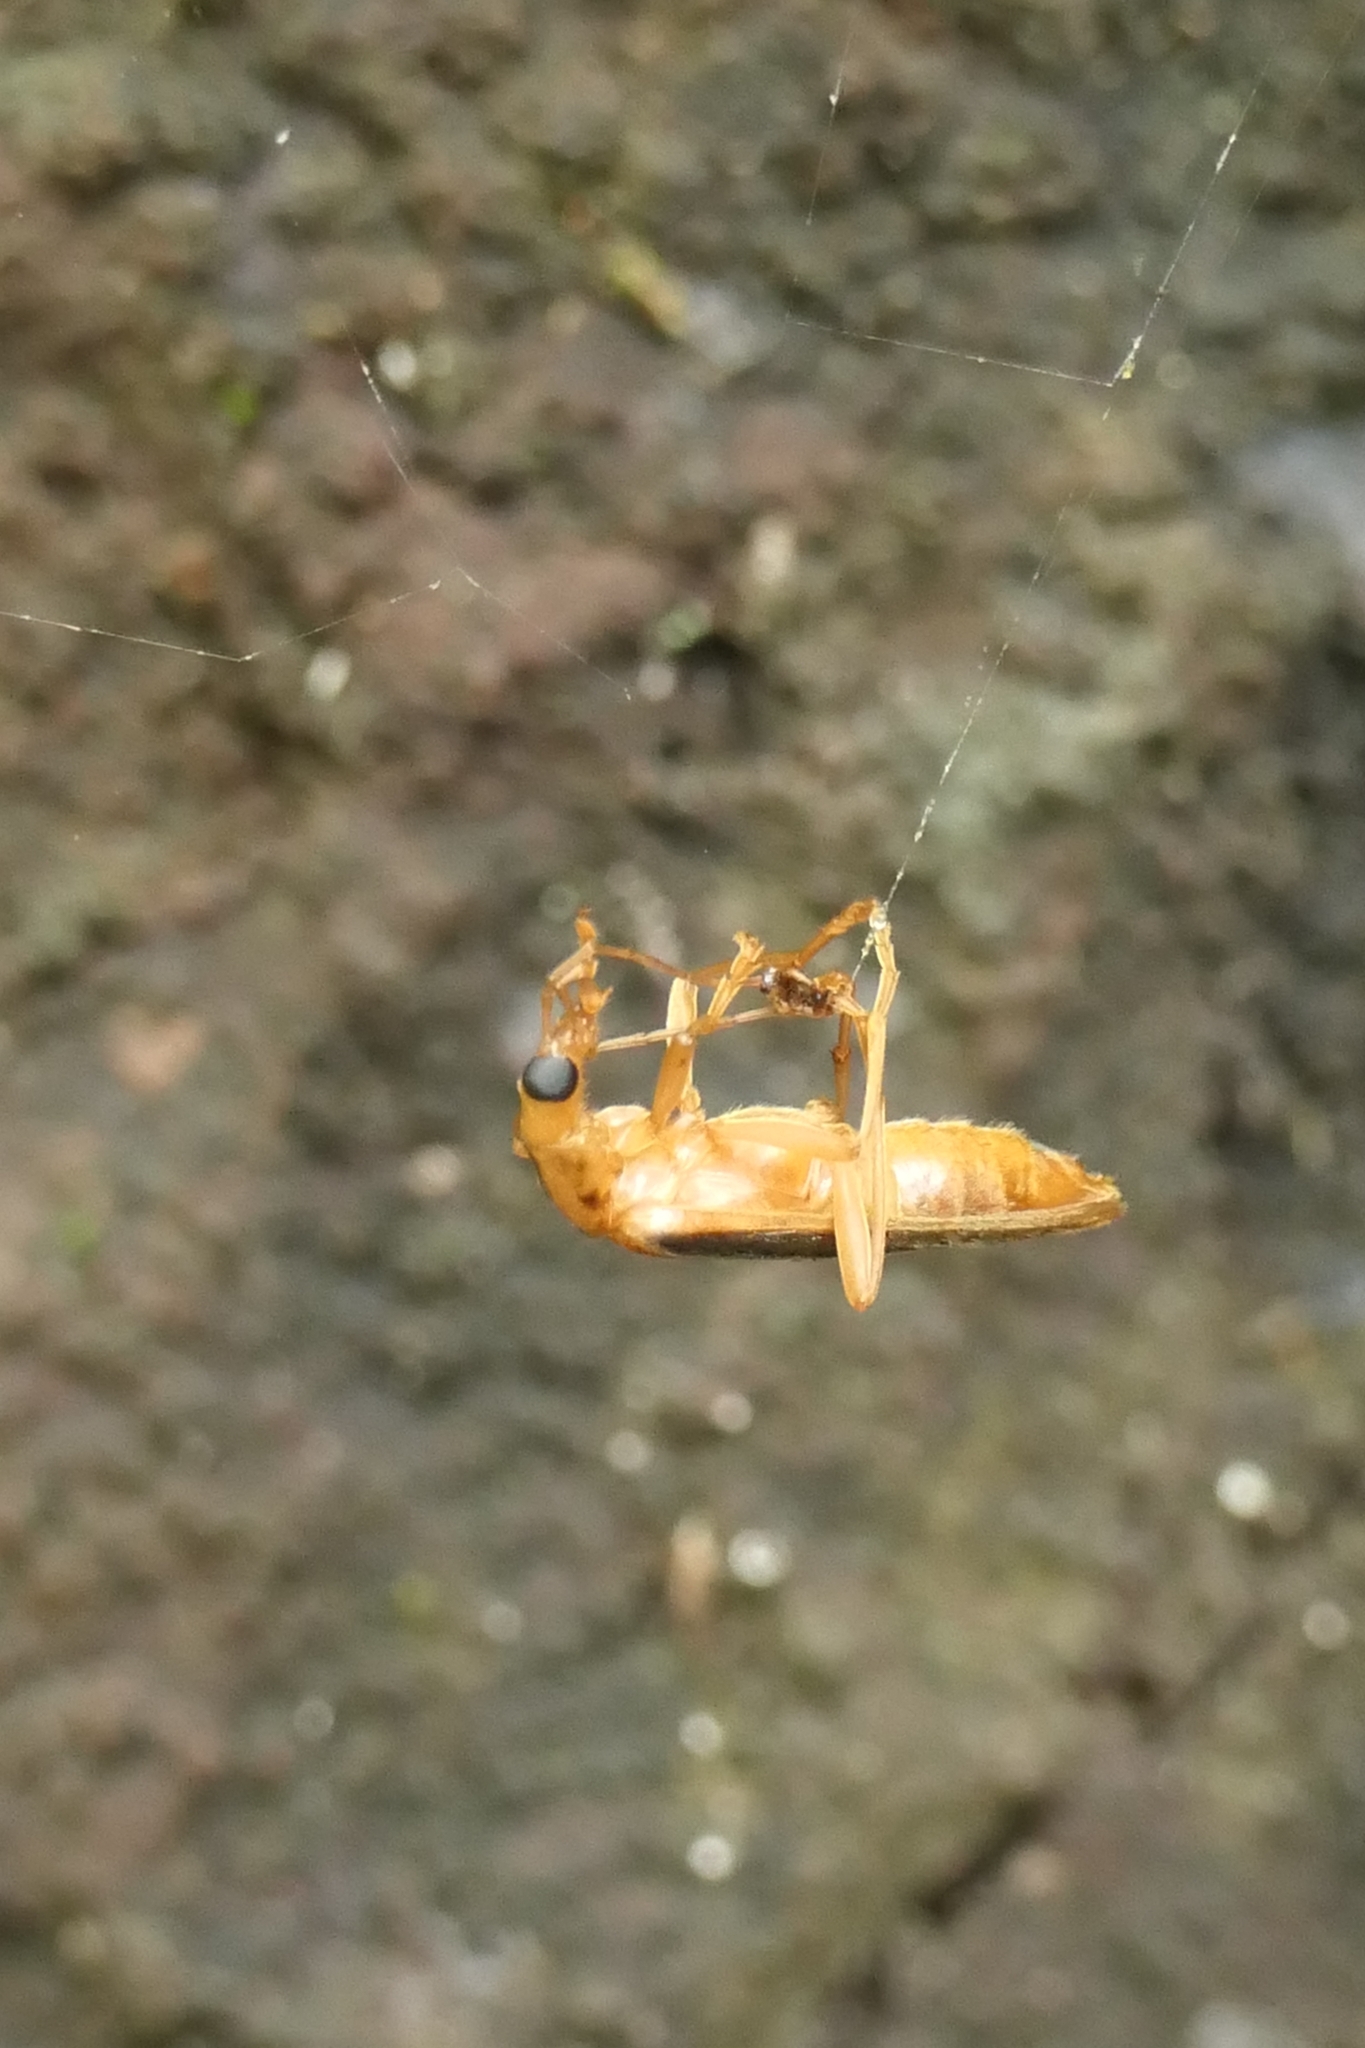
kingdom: Animalia
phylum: Arthropoda
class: Insecta
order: Coleoptera
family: Oedemeridae
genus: Thelyphassa
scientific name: Thelyphassa
